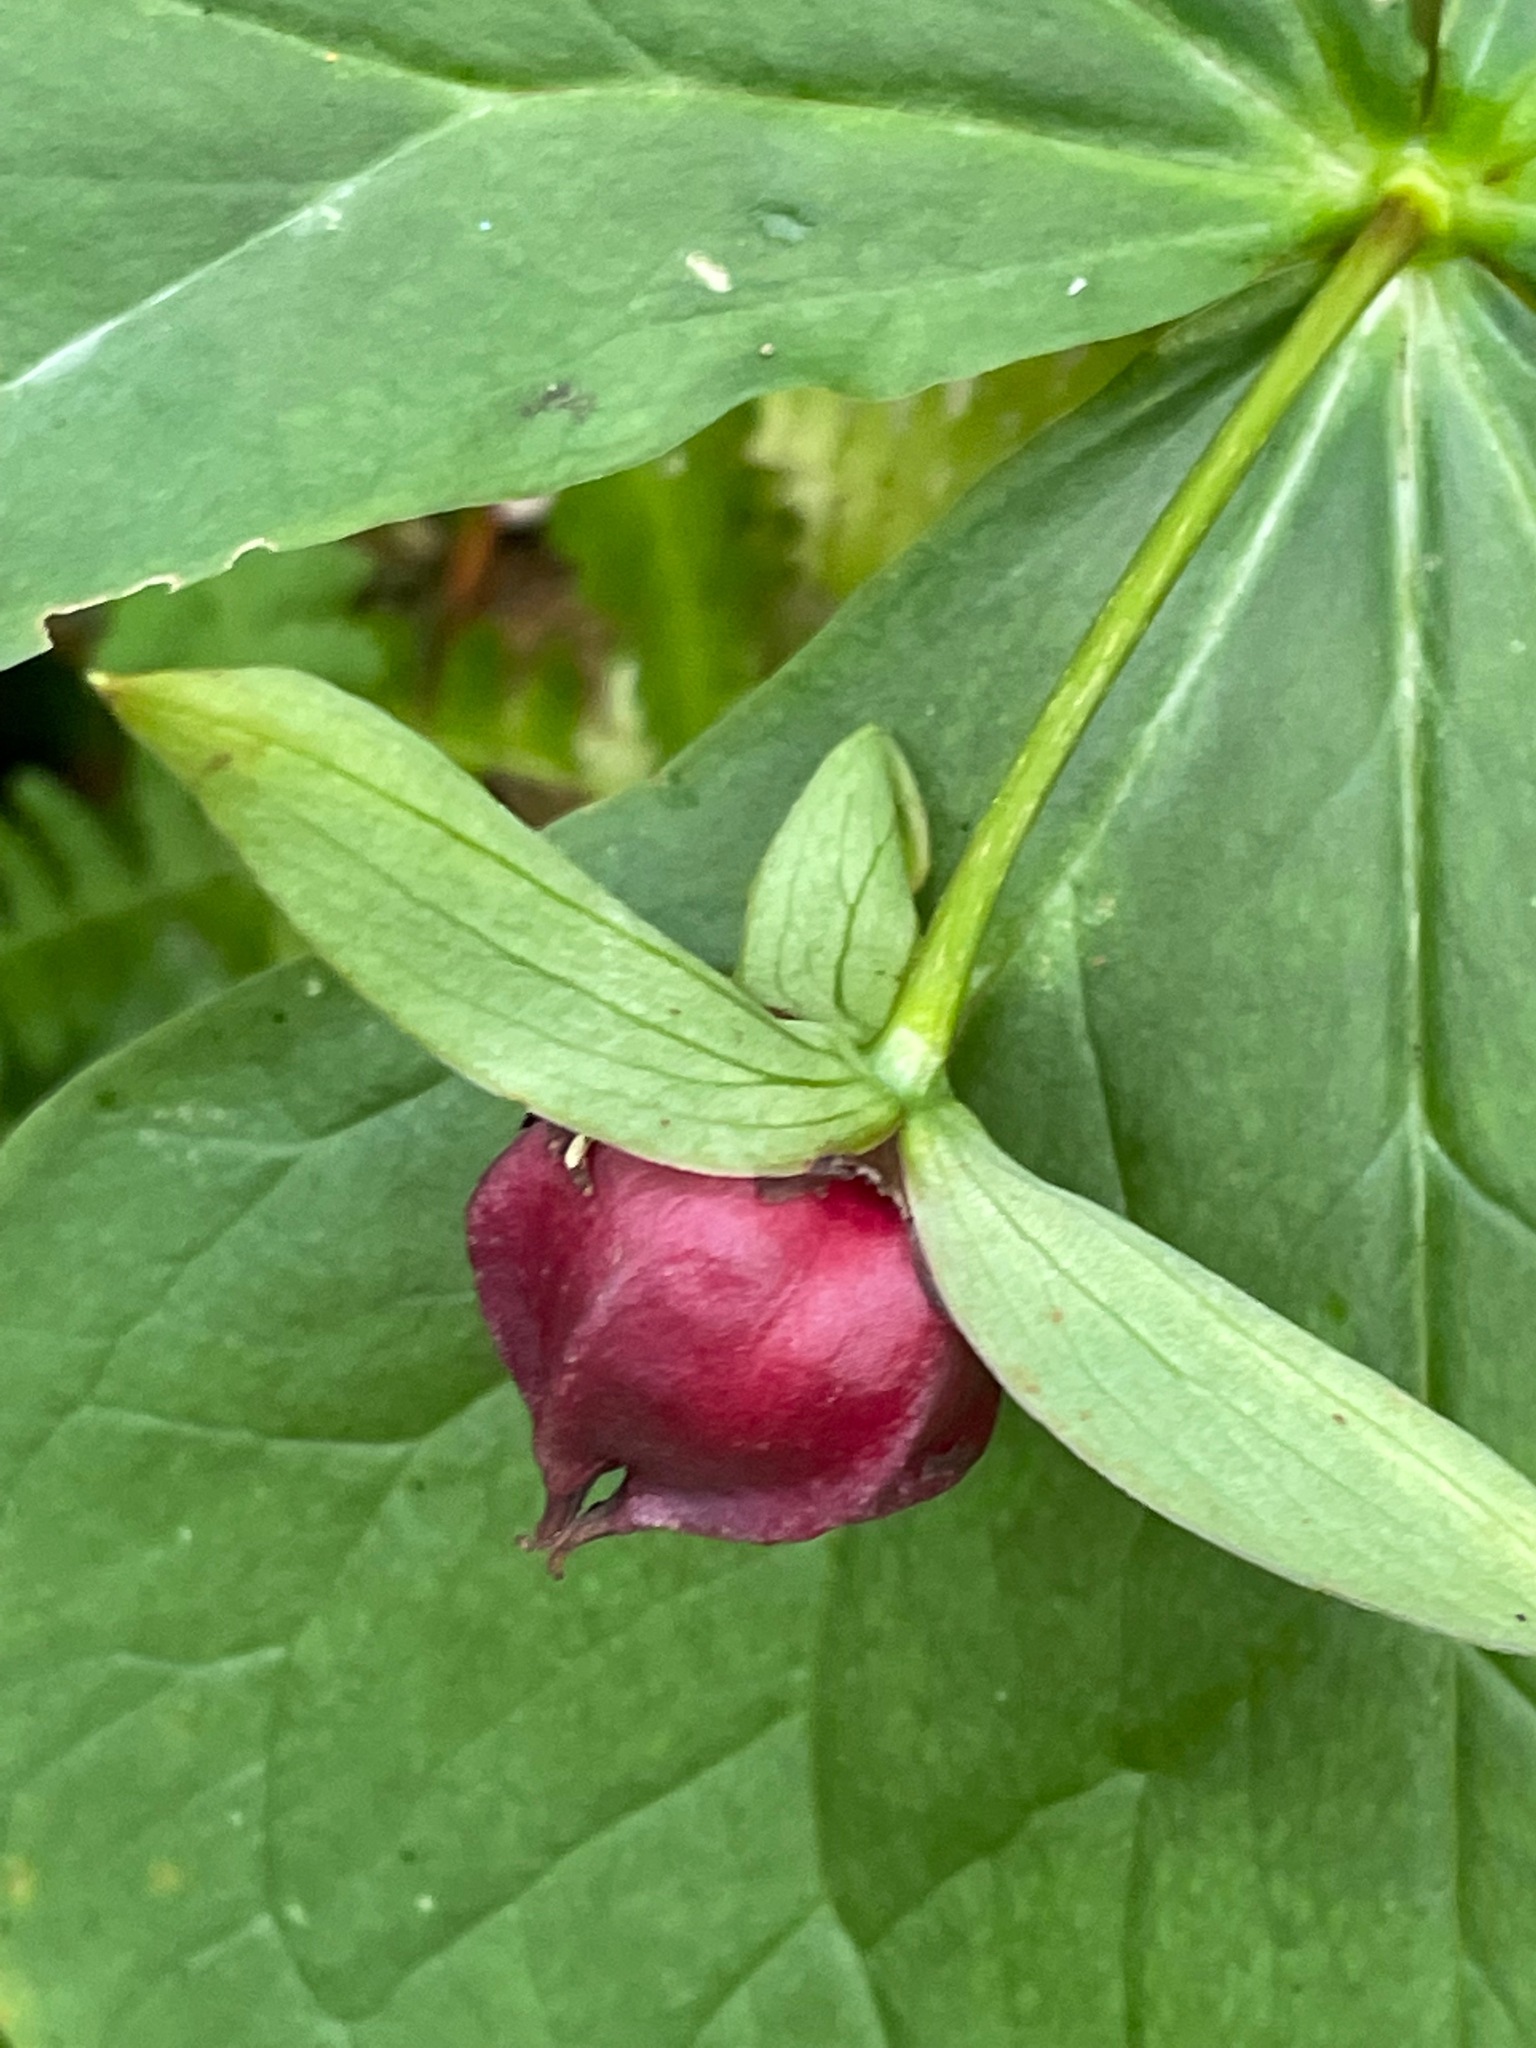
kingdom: Plantae
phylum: Tracheophyta
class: Liliopsida
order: Liliales
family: Melanthiaceae
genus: Trillium
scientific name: Trillium erectum
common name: Purple trillium
